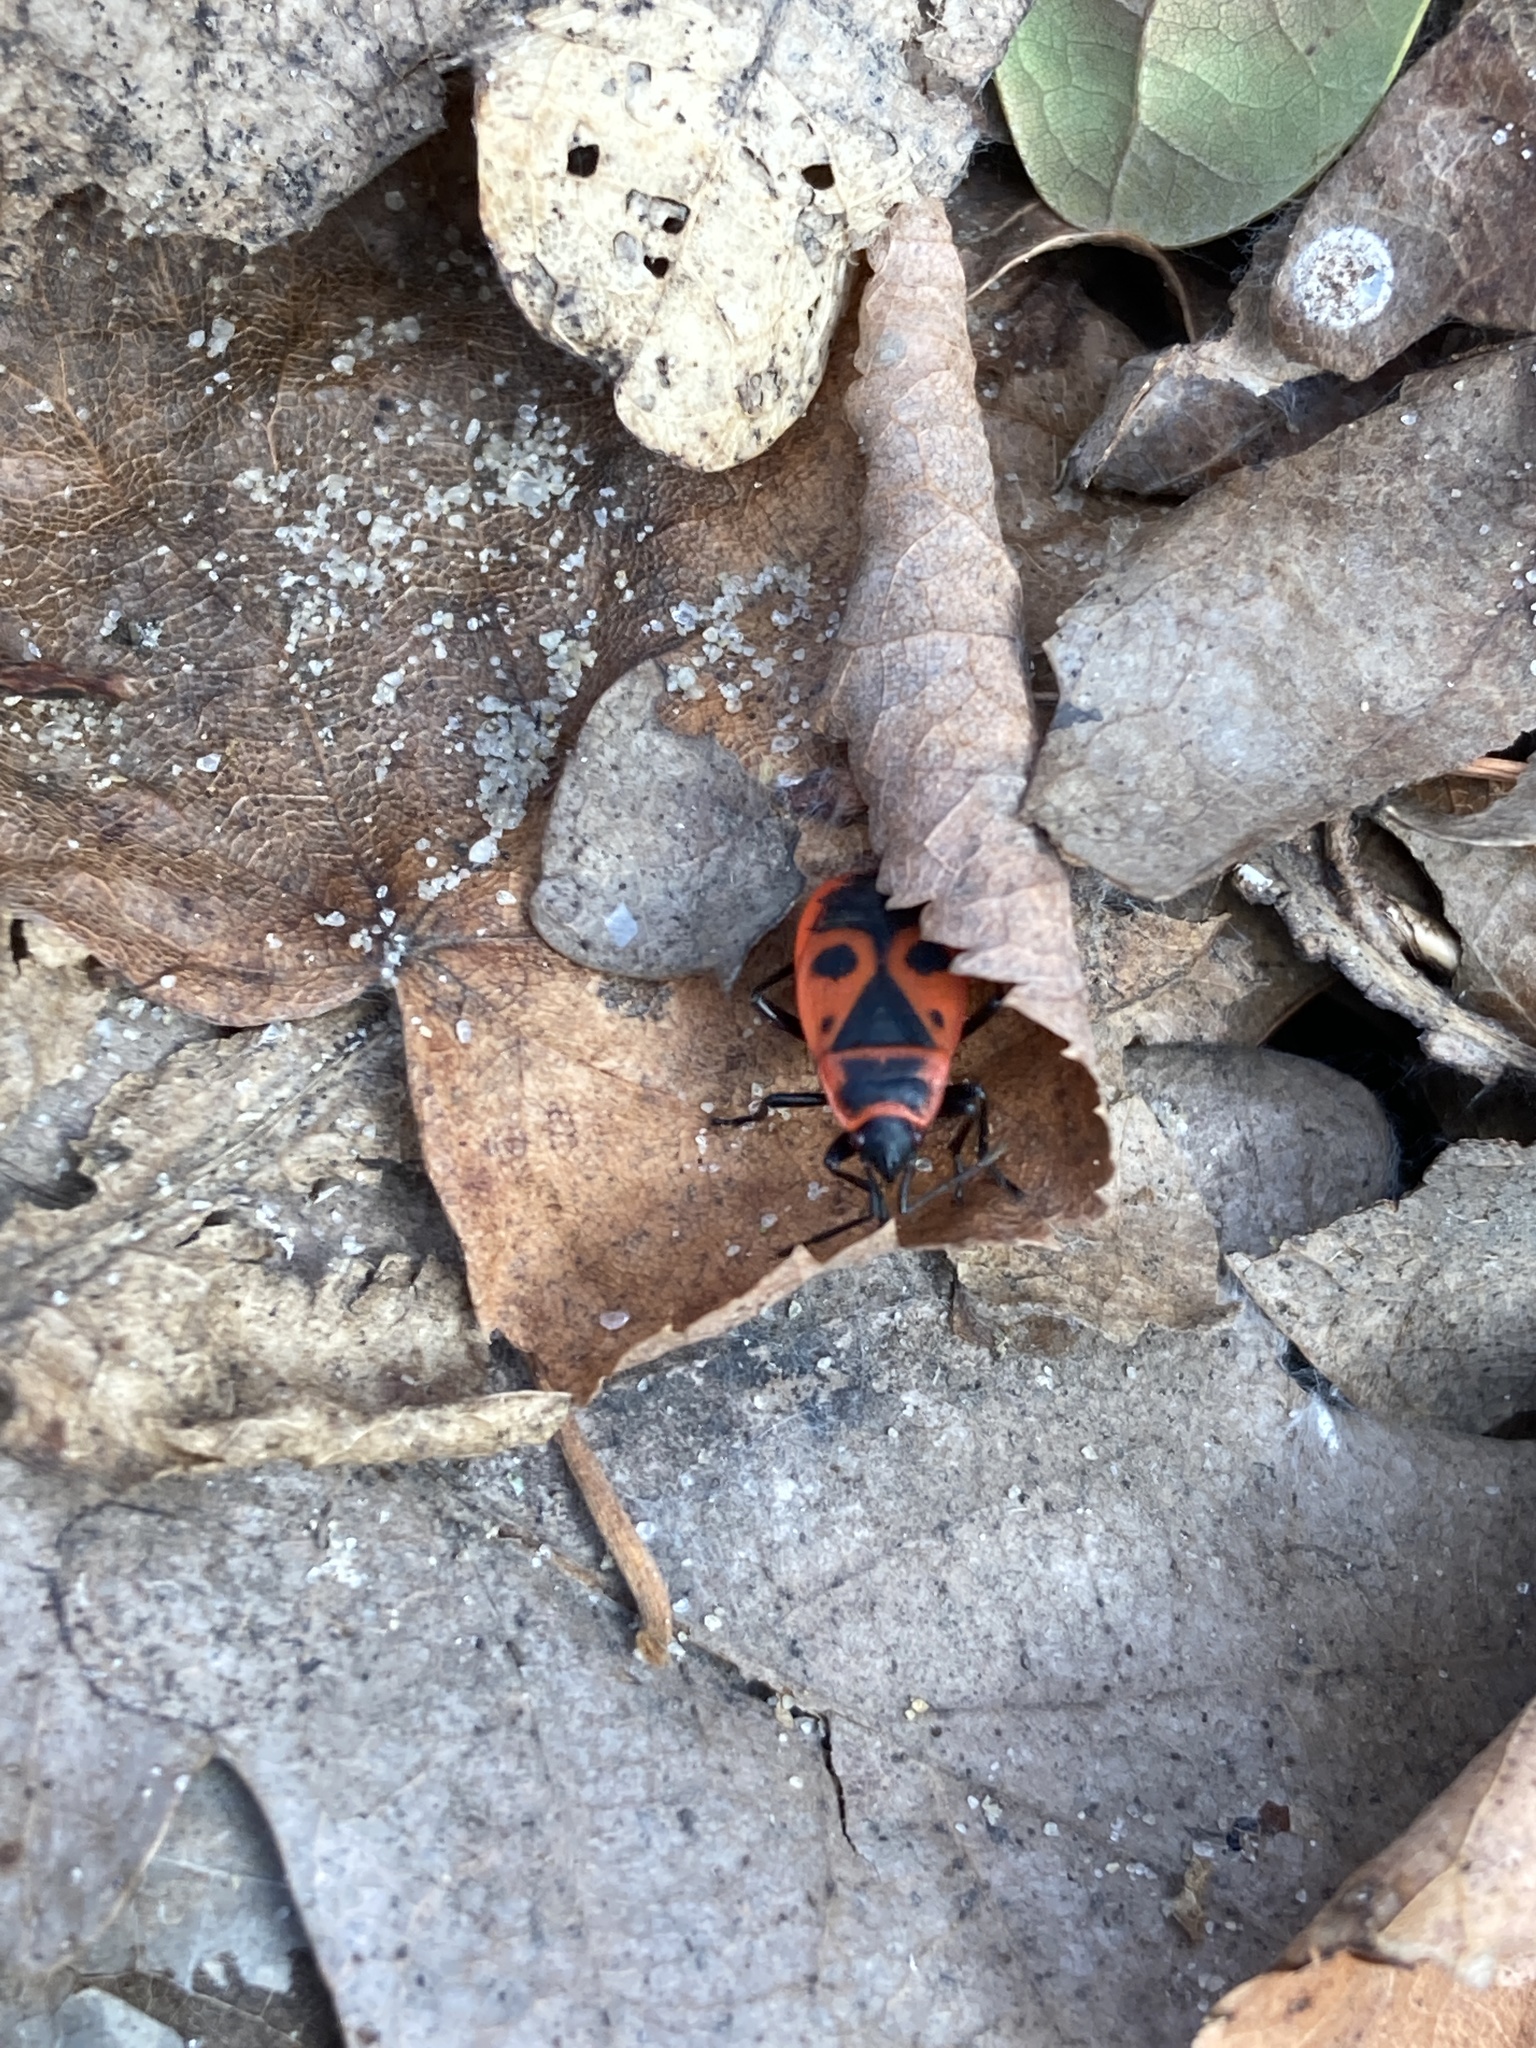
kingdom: Animalia
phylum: Arthropoda
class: Insecta
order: Hemiptera
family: Pyrrhocoridae
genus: Pyrrhocoris
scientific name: Pyrrhocoris apterus
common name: Firebug
